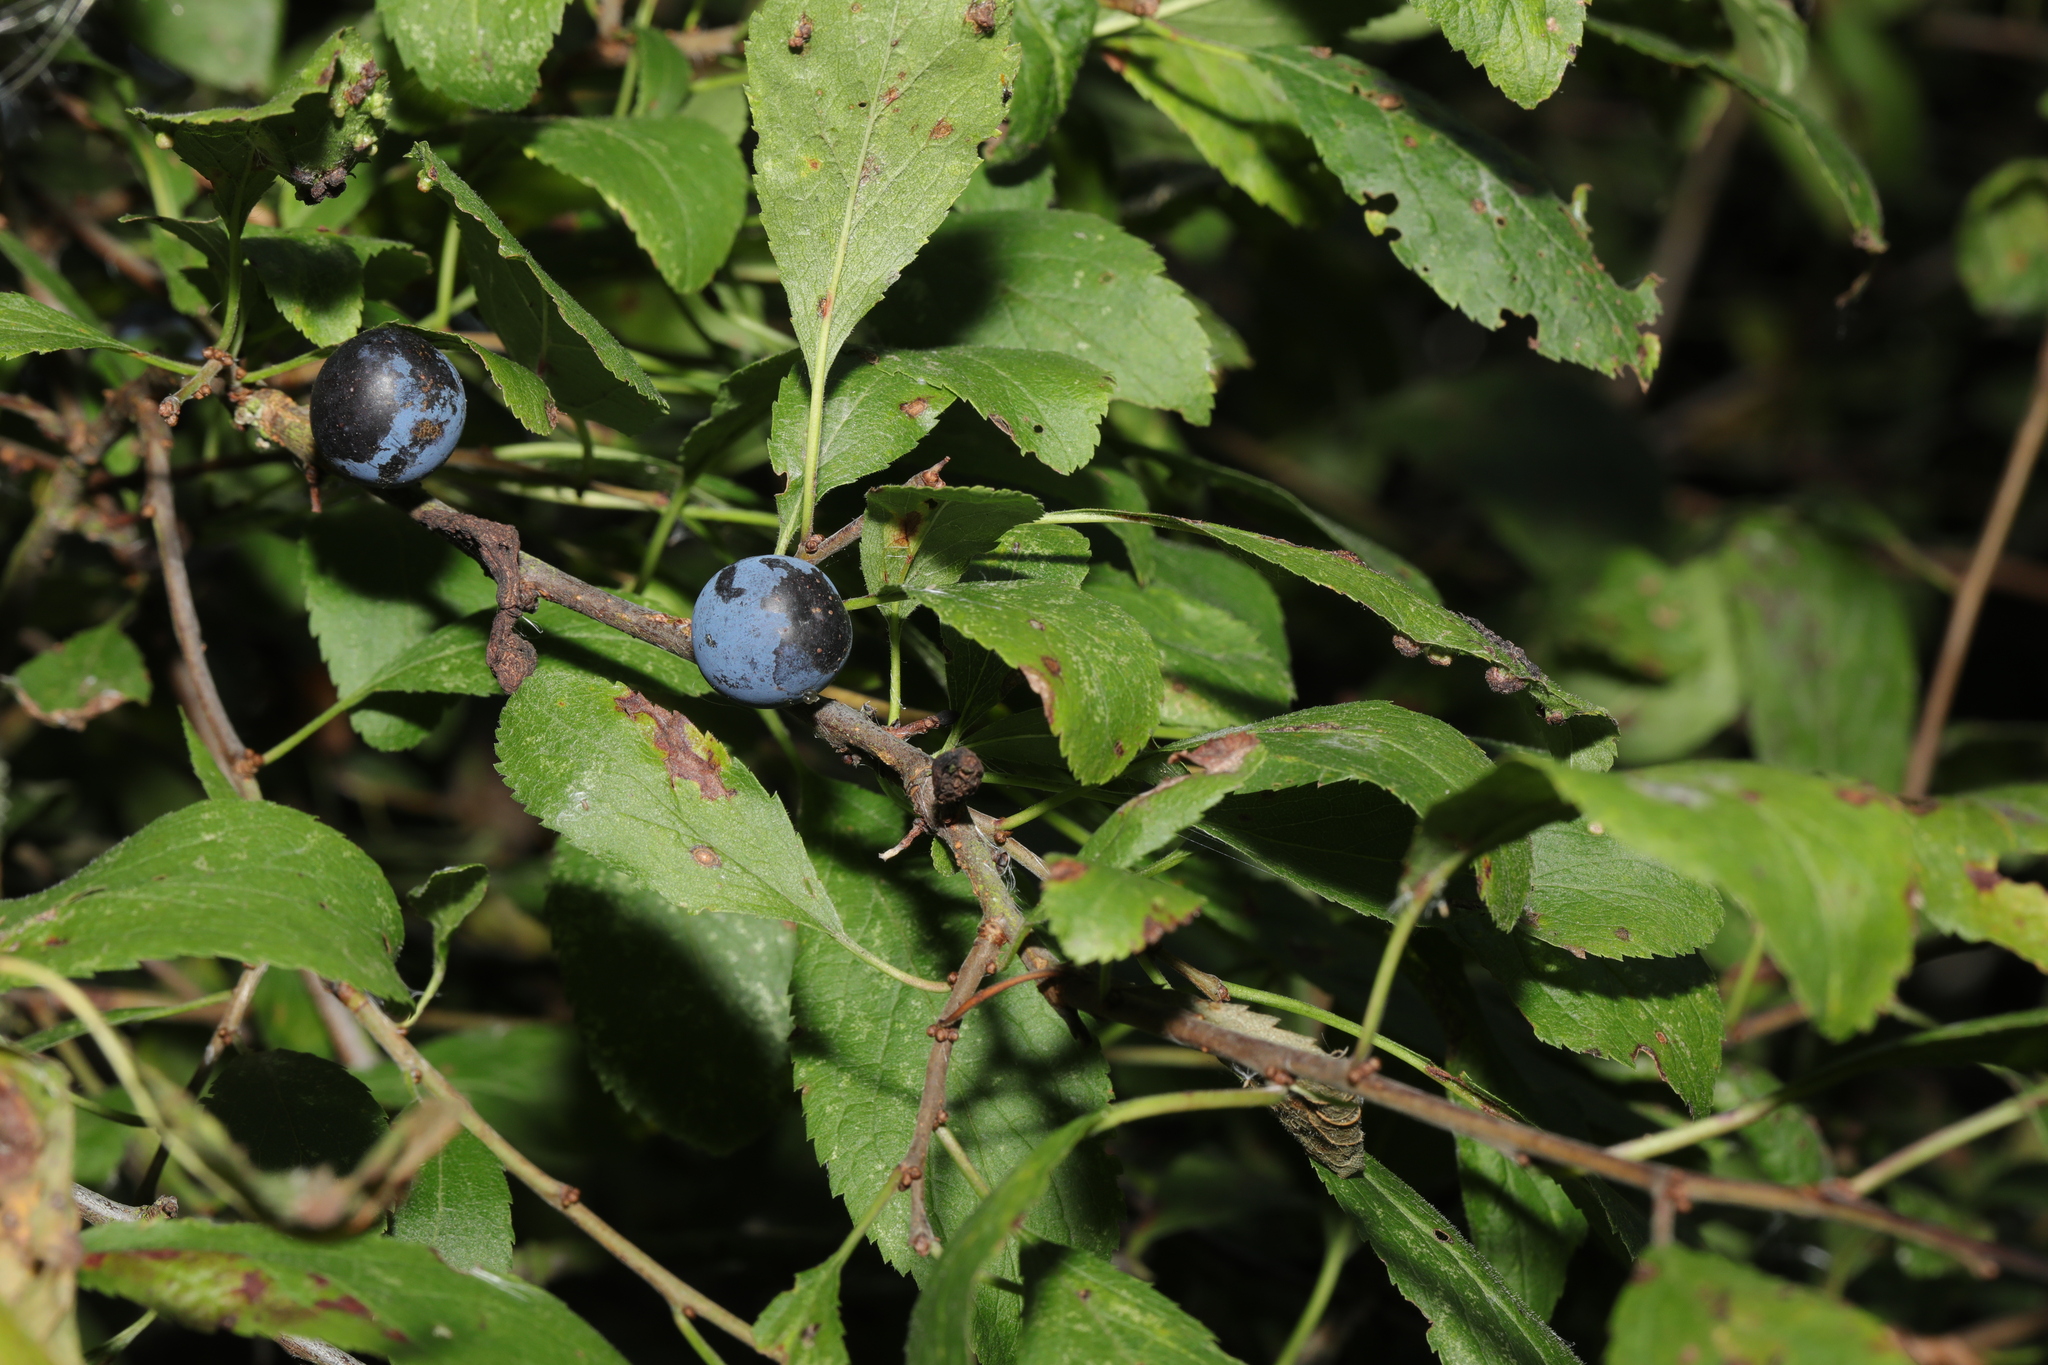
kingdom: Plantae
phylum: Tracheophyta
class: Magnoliopsida
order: Rosales
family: Rosaceae
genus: Prunus
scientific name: Prunus spinosa
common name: Blackthorn
